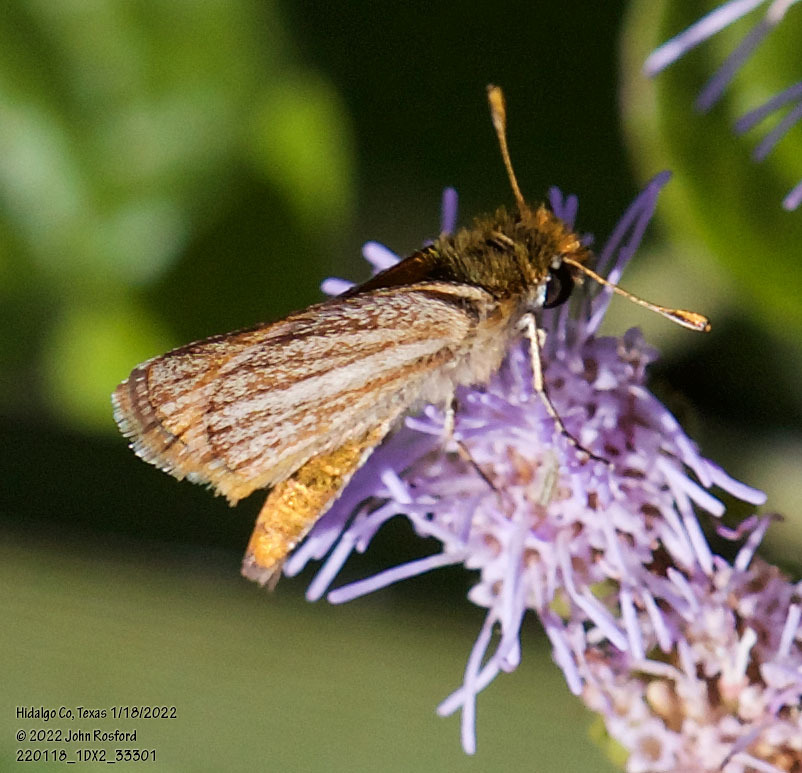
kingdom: Animalia
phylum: Arthropoda
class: Insecta
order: Lepidoptera
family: Hesperiidae
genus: Copaeodes
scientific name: Copaeodes minima
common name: Southern skipperling
